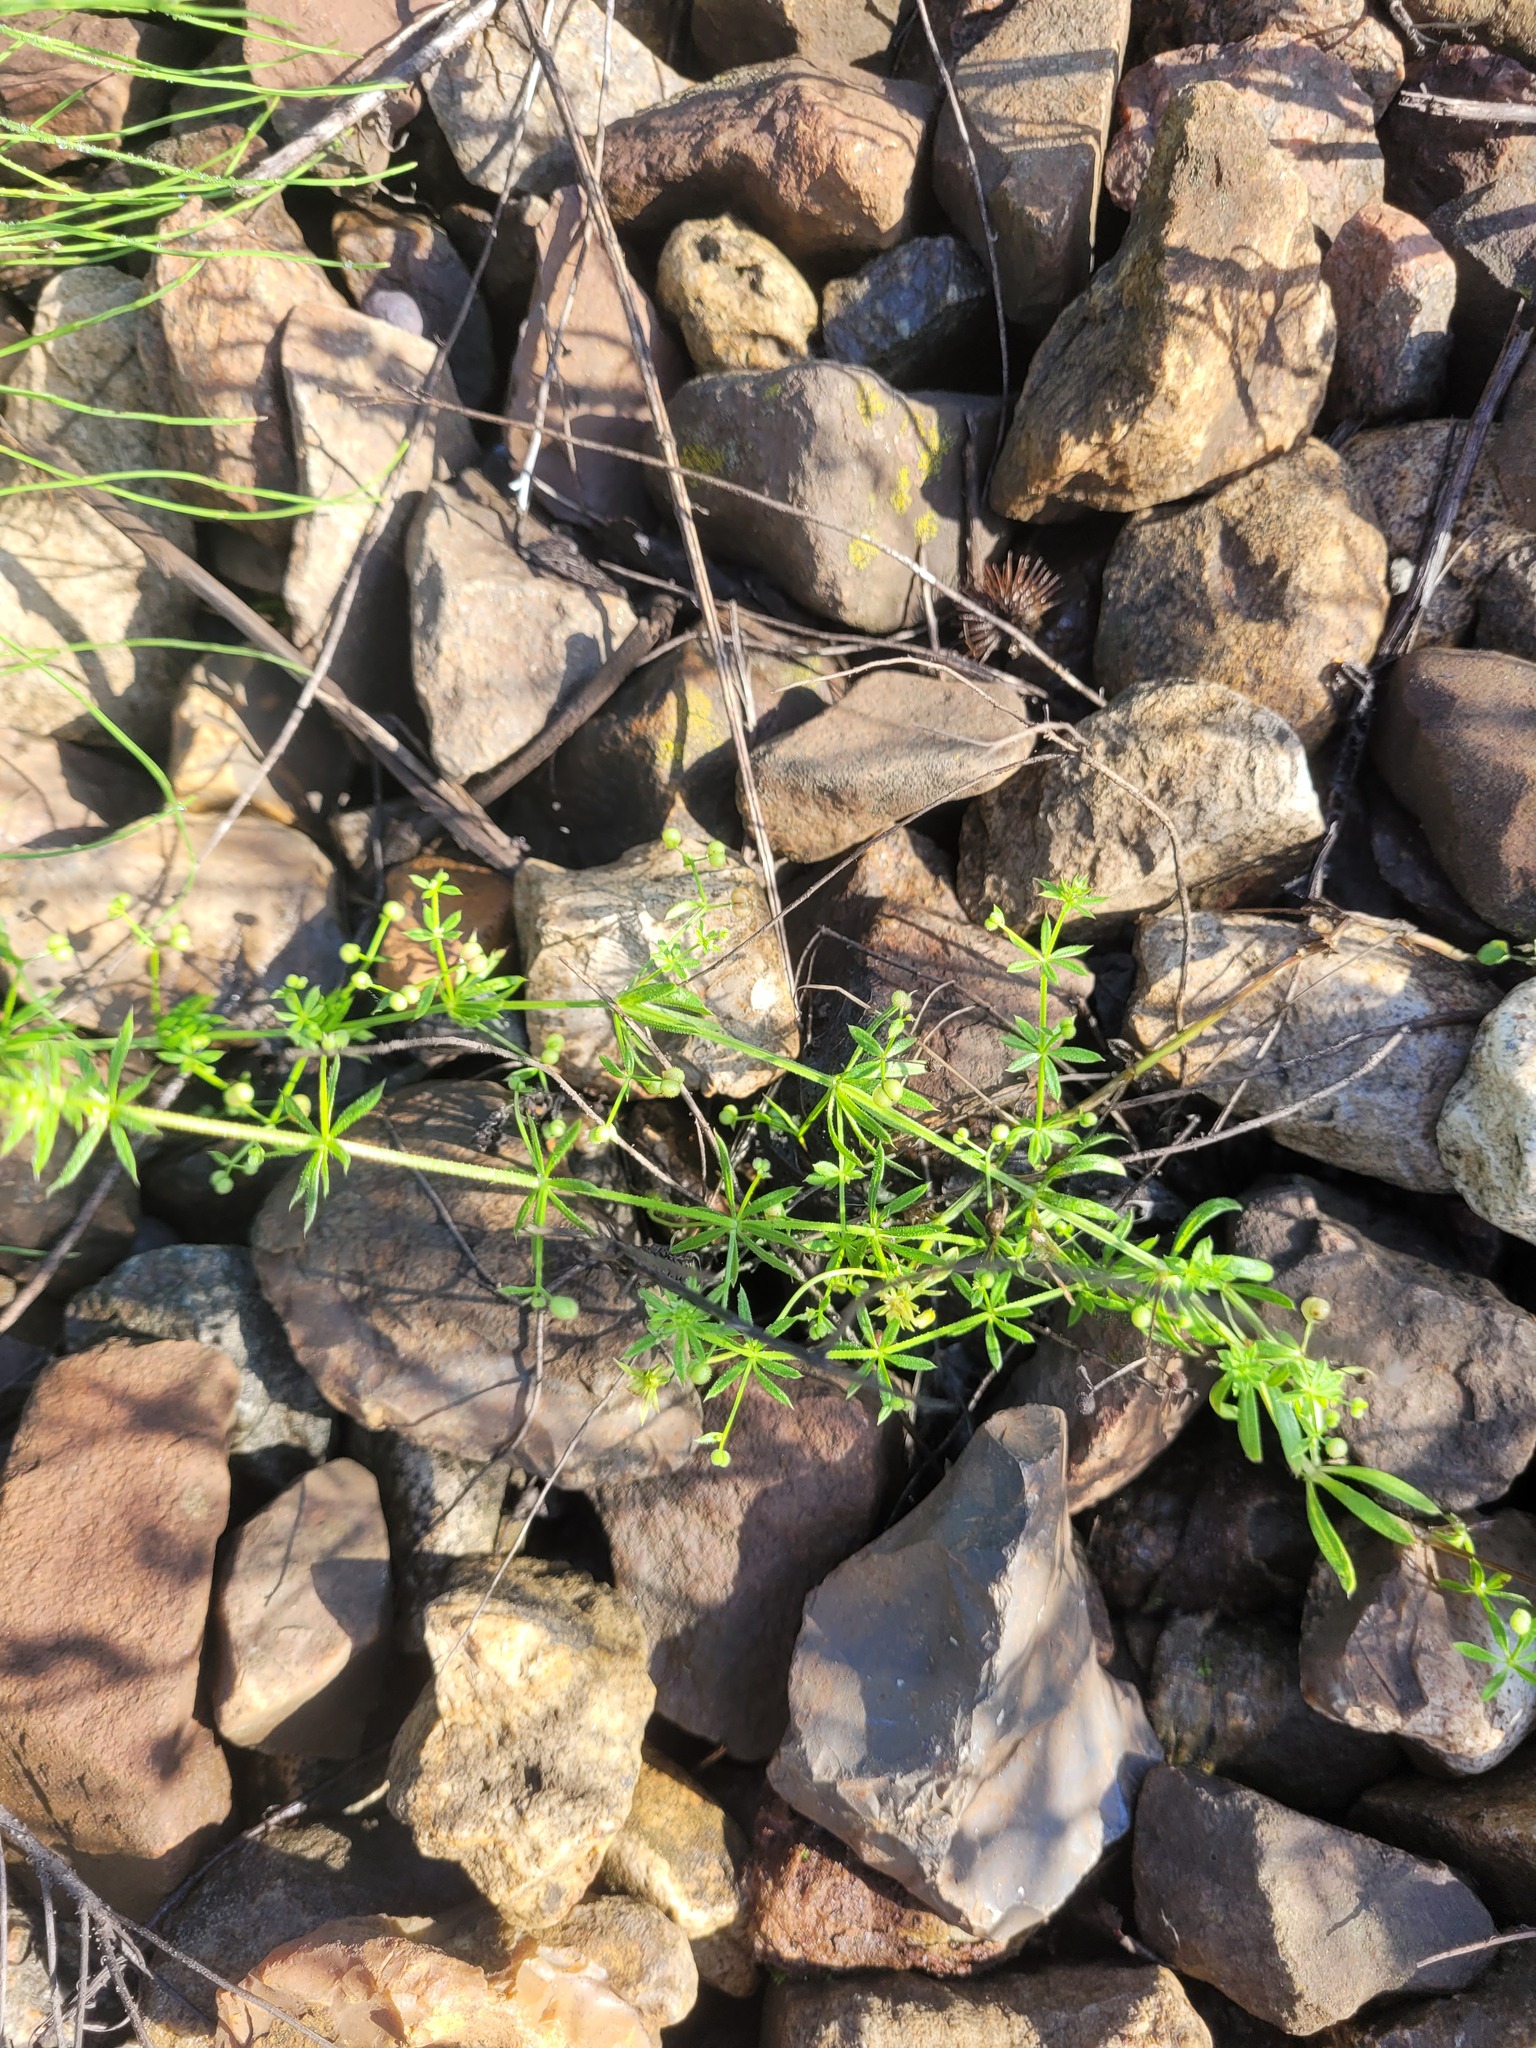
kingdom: Plantae
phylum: Tracheophyta
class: Magnoliopsida
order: Gentianales
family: Rubiaceae
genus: Galium
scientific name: Galium
